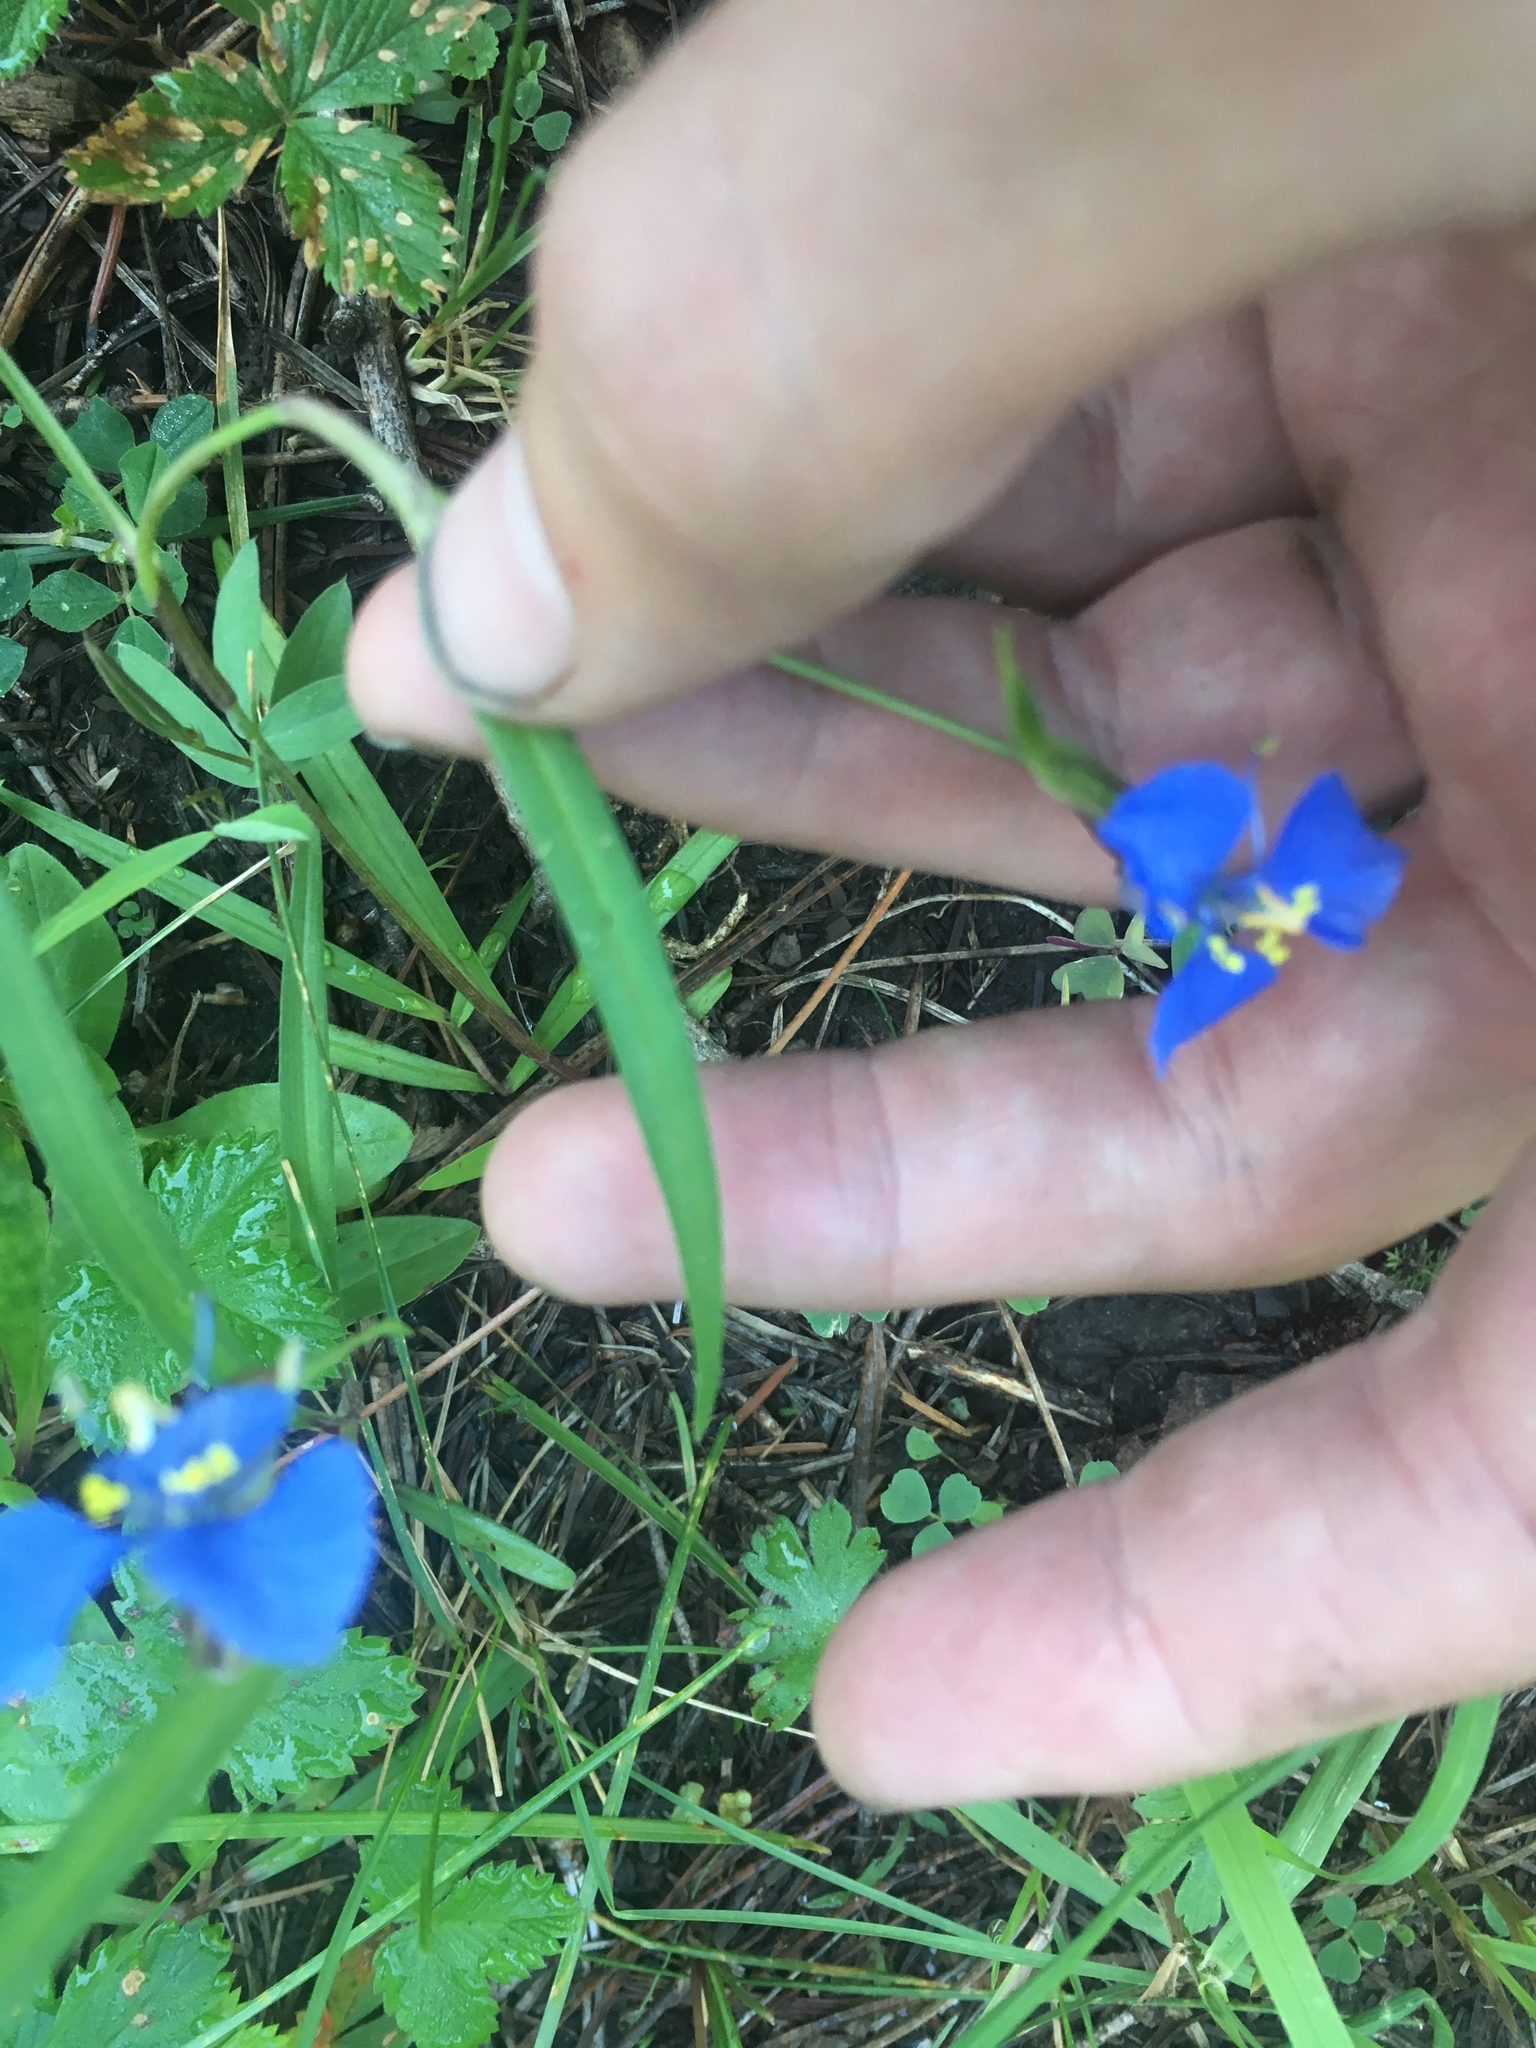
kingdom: Plantae
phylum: Tracheophyta
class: Liliopsida
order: Commelinales
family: Commelinaceae
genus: Commelina
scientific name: Commelina dianthifolia
